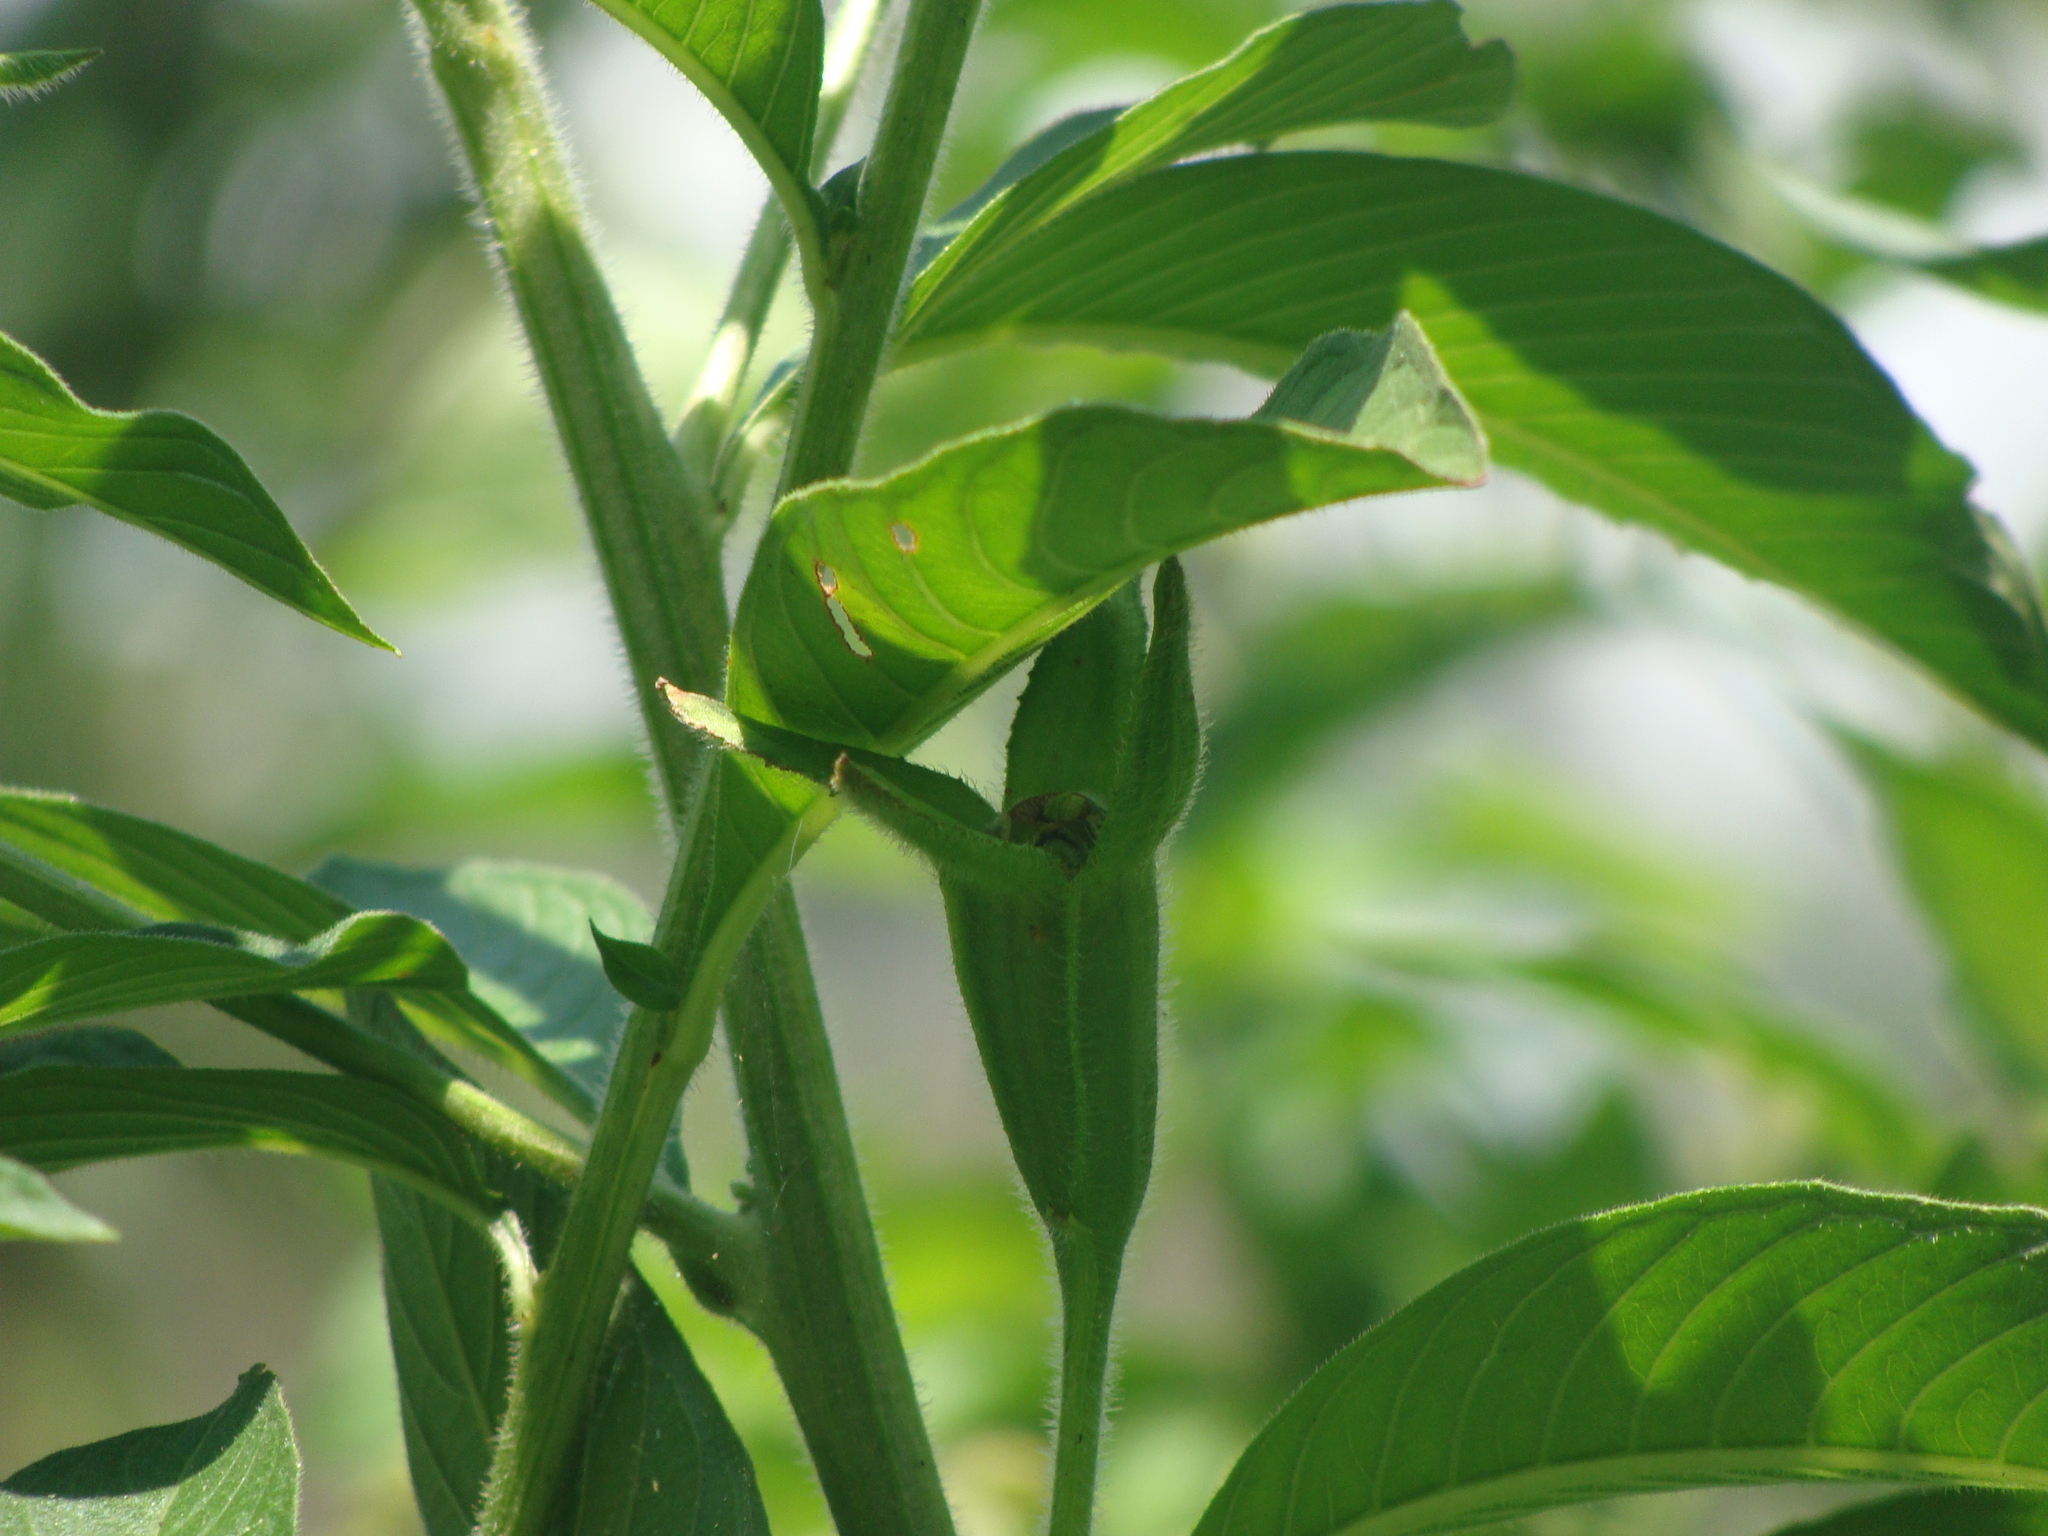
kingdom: Plantae
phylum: Tracheophyta
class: Magnoliopsida
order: Myrtales
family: Onagraceae
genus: Ludwigia
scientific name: Ludwigia peruviana
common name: Peruvian primrose-willow
